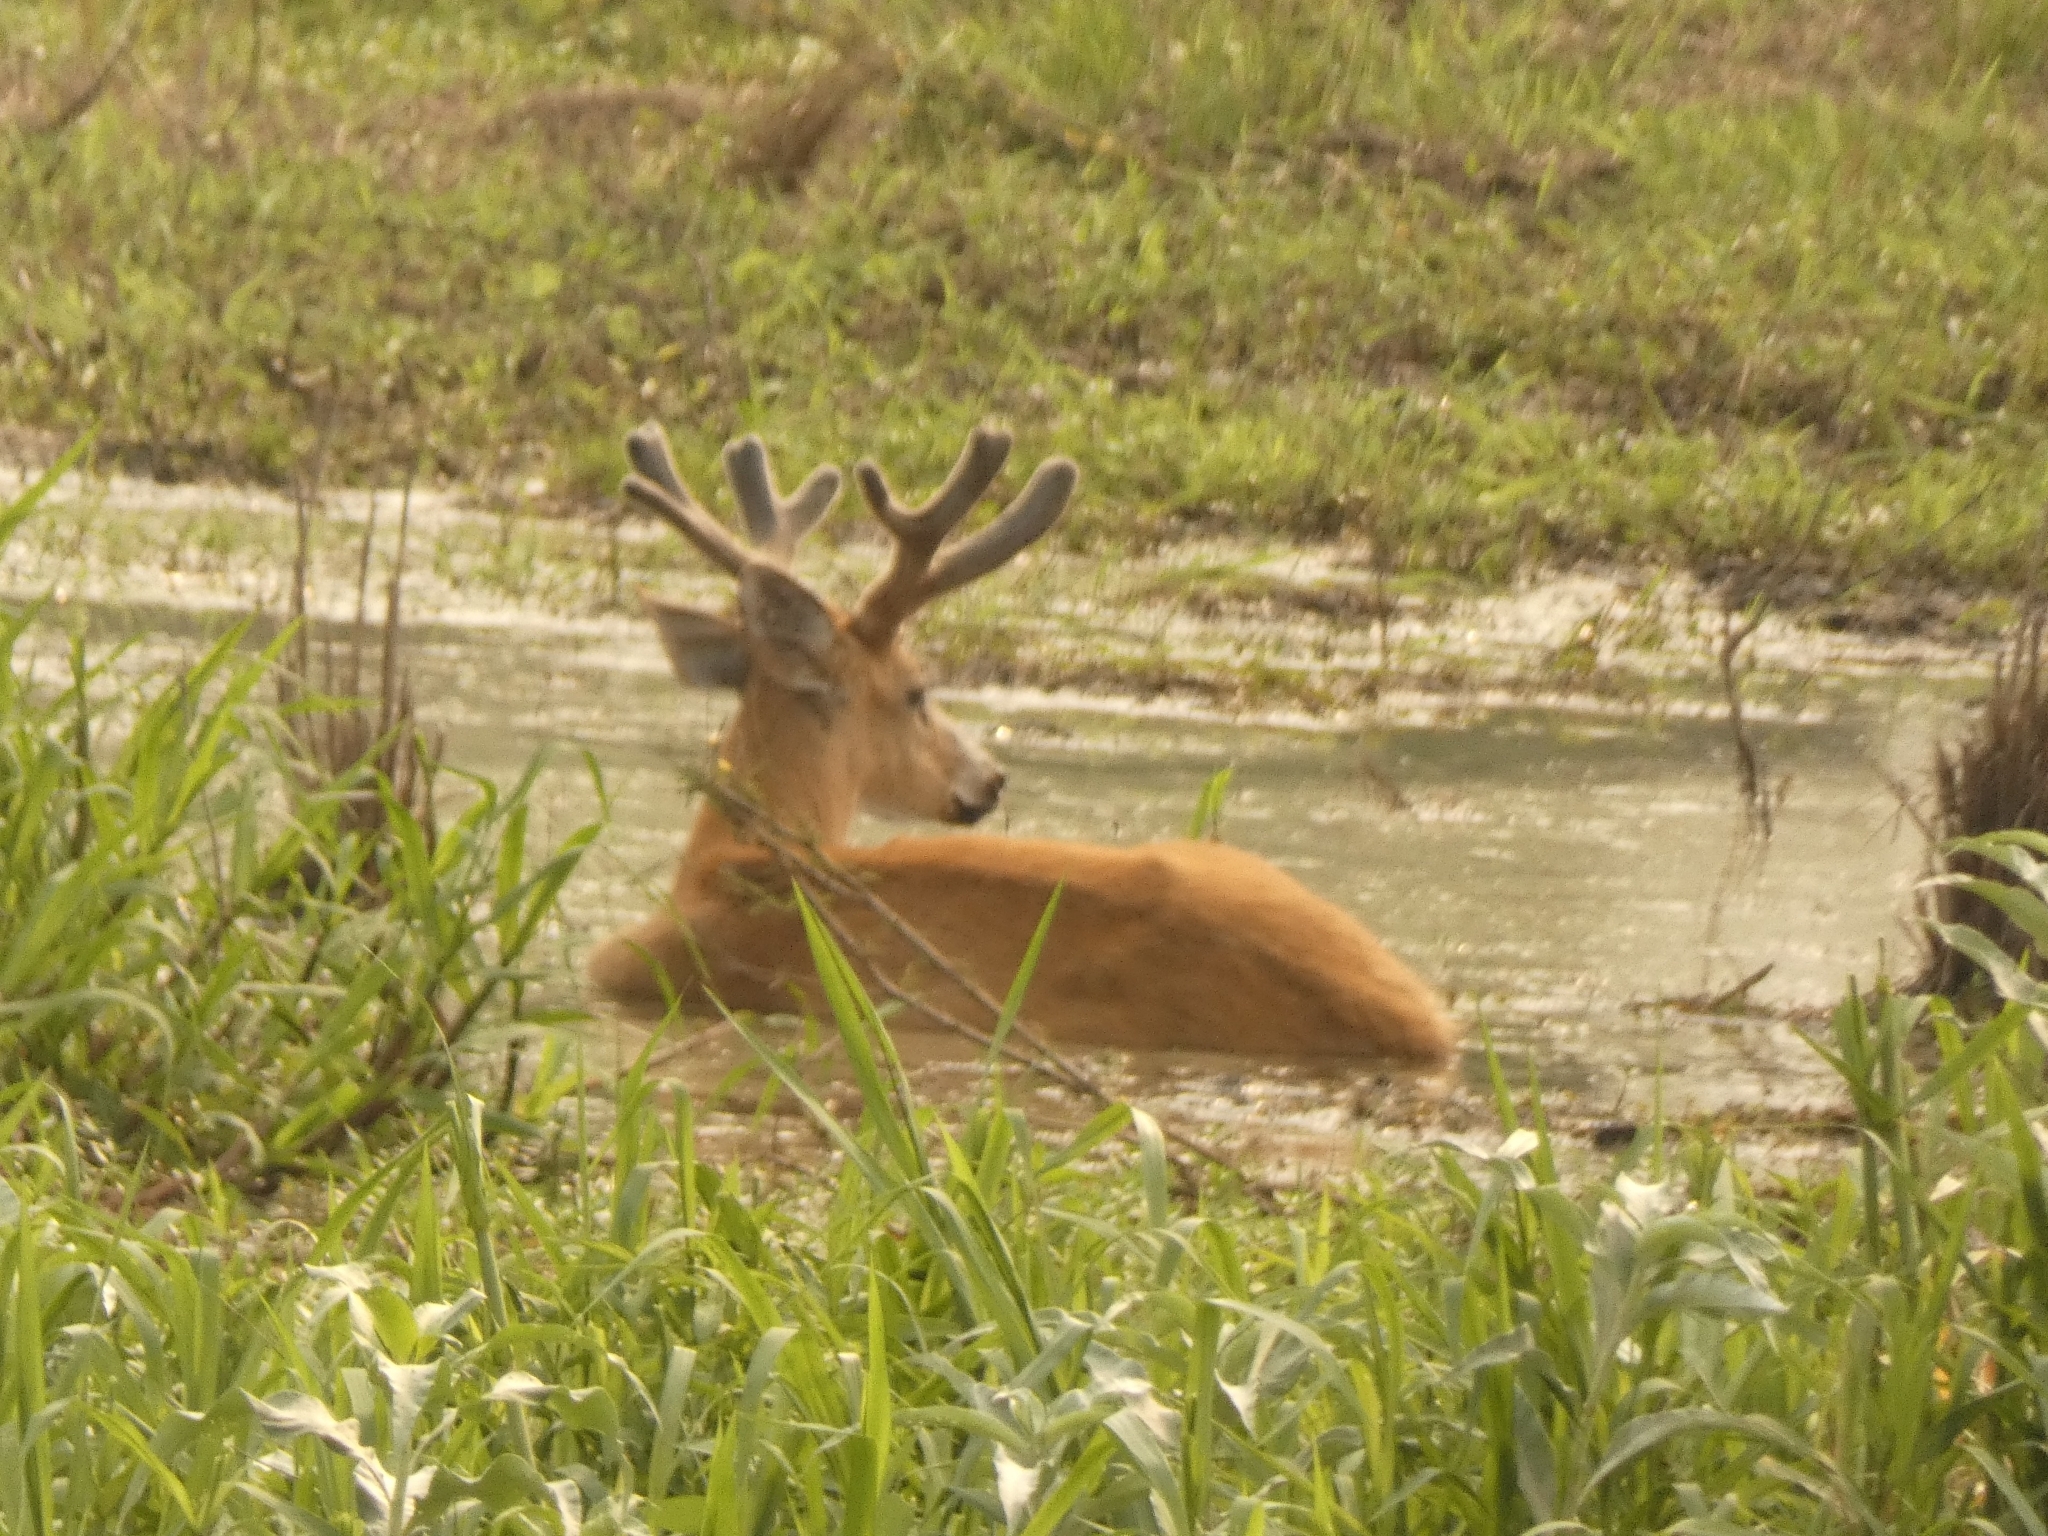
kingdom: Animalia
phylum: Chordata
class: Mammalia
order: Artiodactyla
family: Cervidae
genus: Blastocerus
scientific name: Blastocerus dichotomus
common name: Marsh deer
